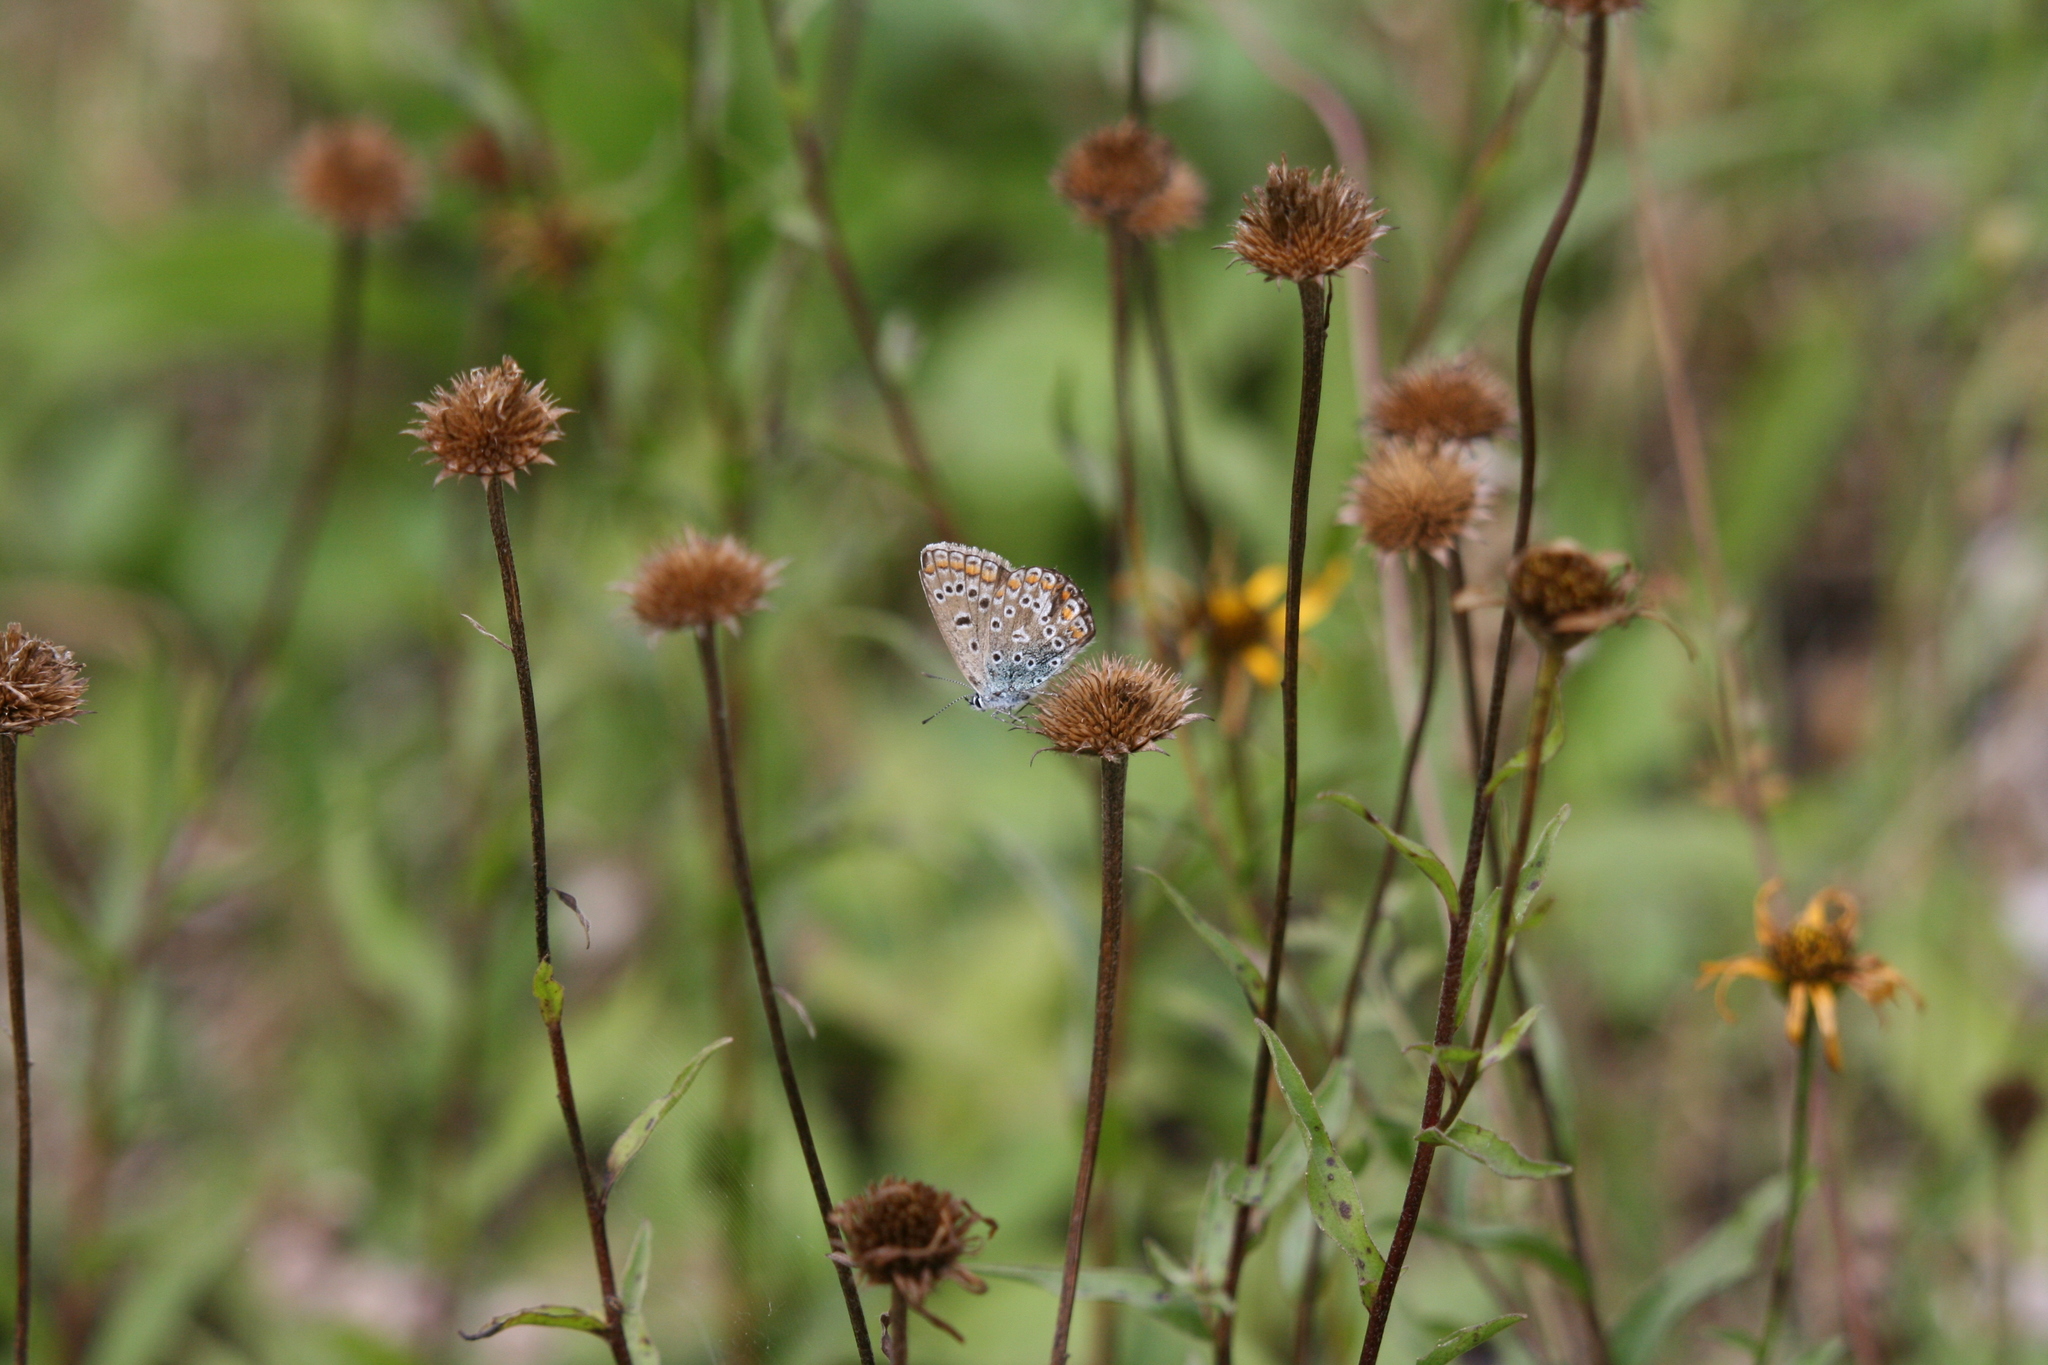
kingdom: Animalia
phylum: Arthropoda
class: Insecta
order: Lepidoptera
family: Lycaenidae
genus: Polyommatus
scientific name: Polyommatus icarus
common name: Common blue
